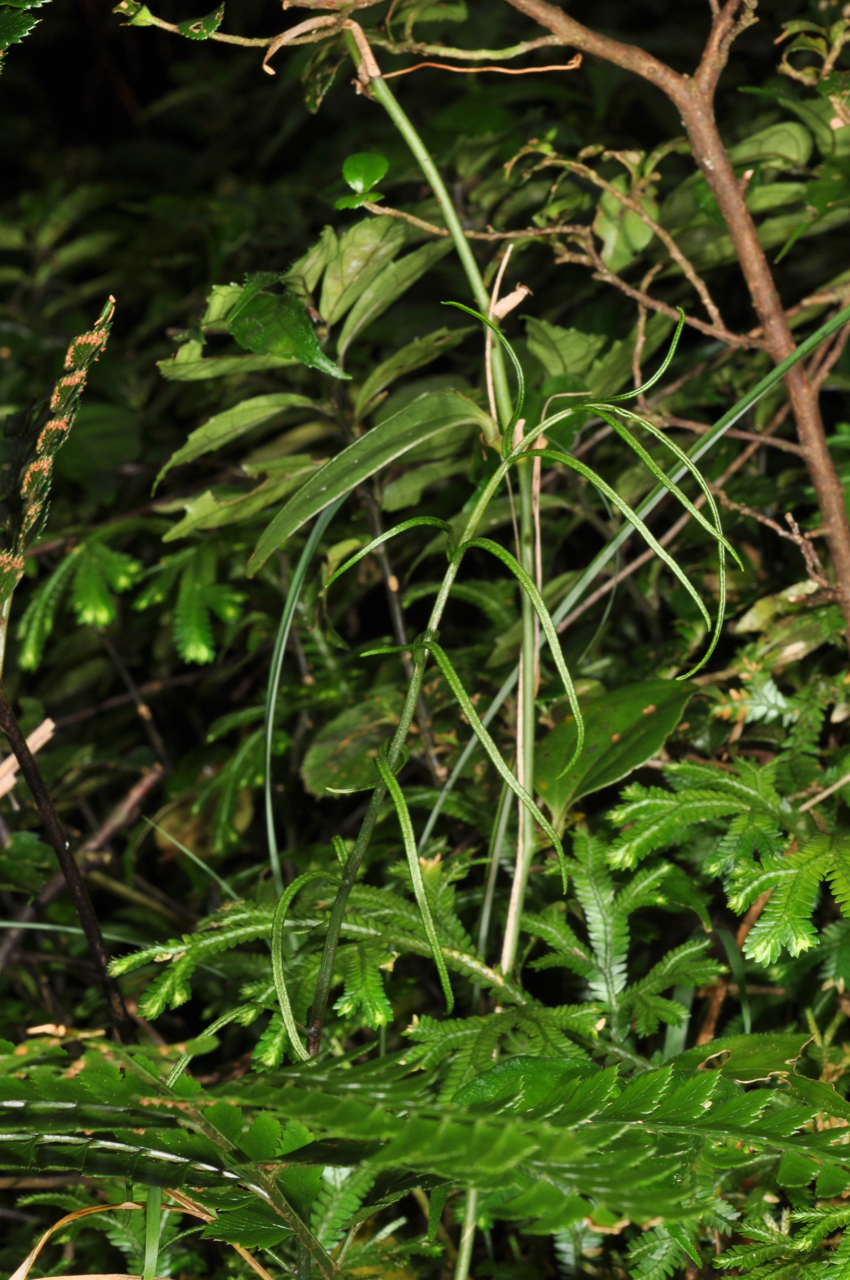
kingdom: Plantae
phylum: Tracheophyta
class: Polypodiopsida
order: Cyatheales
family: Plagiogyriaceae
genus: Plagiogyria
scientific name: Plagiogyria euphlebia
